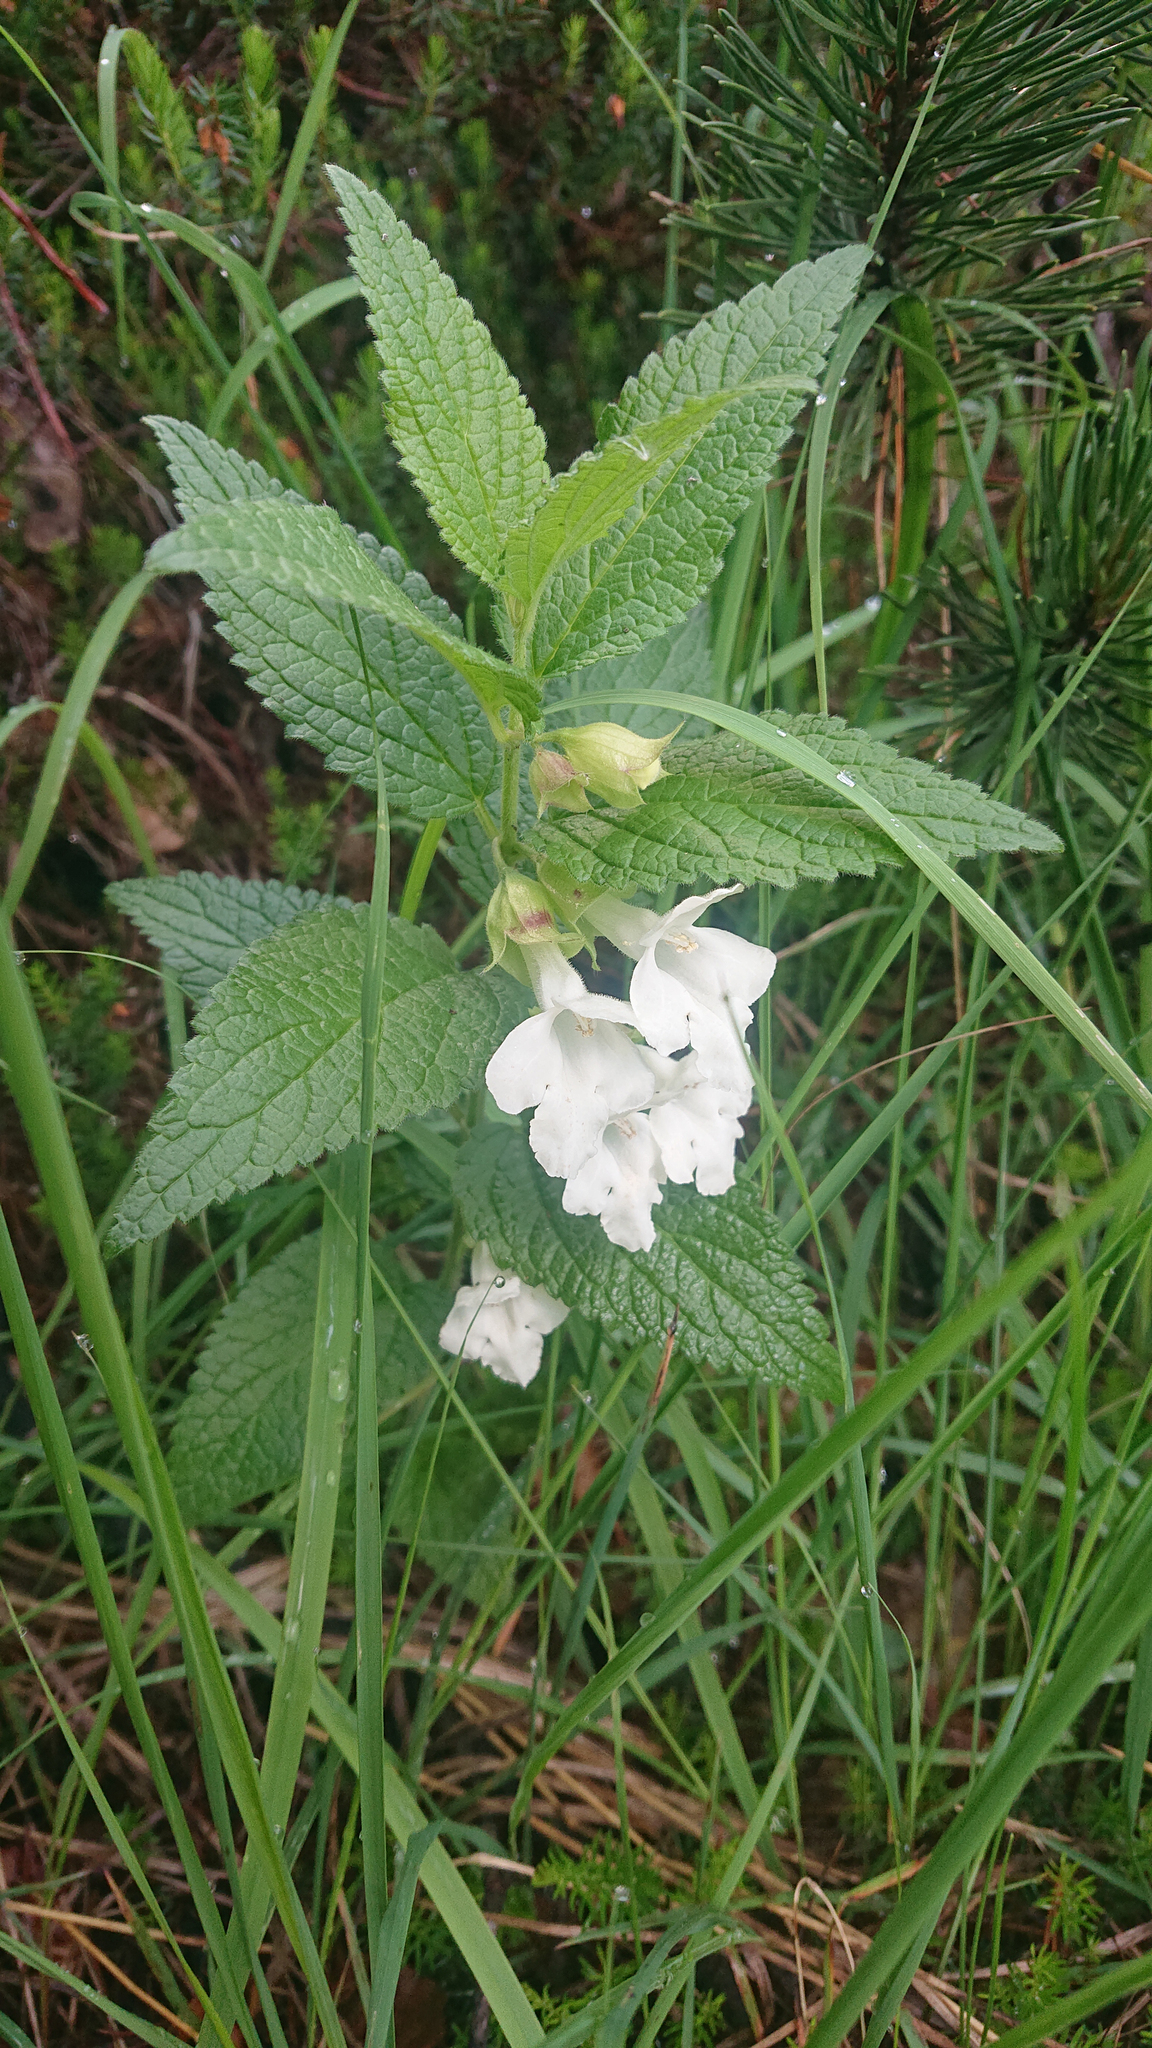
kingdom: Plantae
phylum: Tracheophyta
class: Magnoliopsida
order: Lamiales
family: Lamiaceae
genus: Melittis
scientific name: Melittis melissophyllum
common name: Bastard balm
